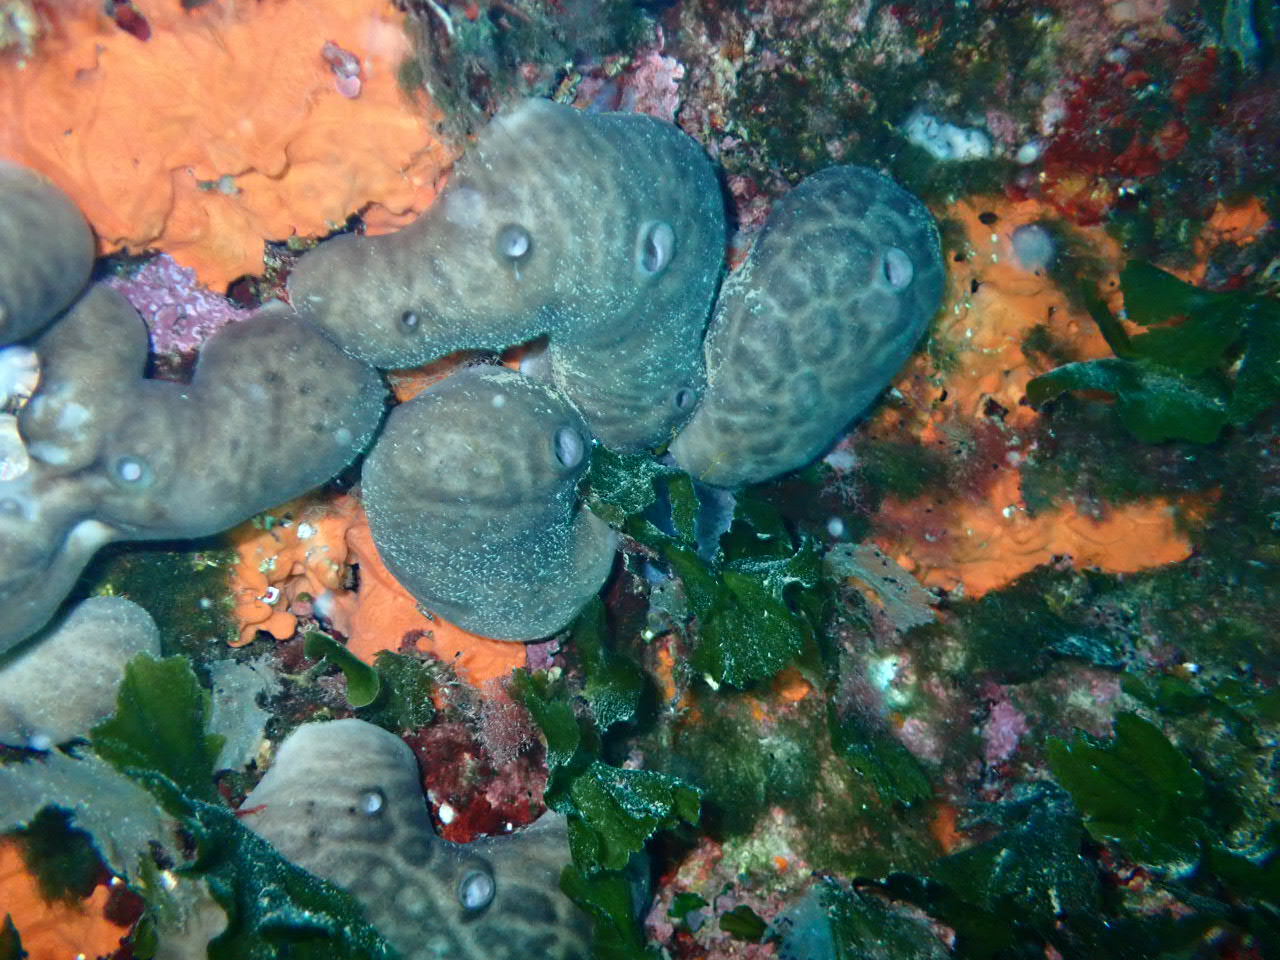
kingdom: Animalia
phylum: Porifera
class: Demospongiae
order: Chondrosiida
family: Chondrosiidae
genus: Chondrosia
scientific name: Chondrosia reniformis
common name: Chicken liver sponge
